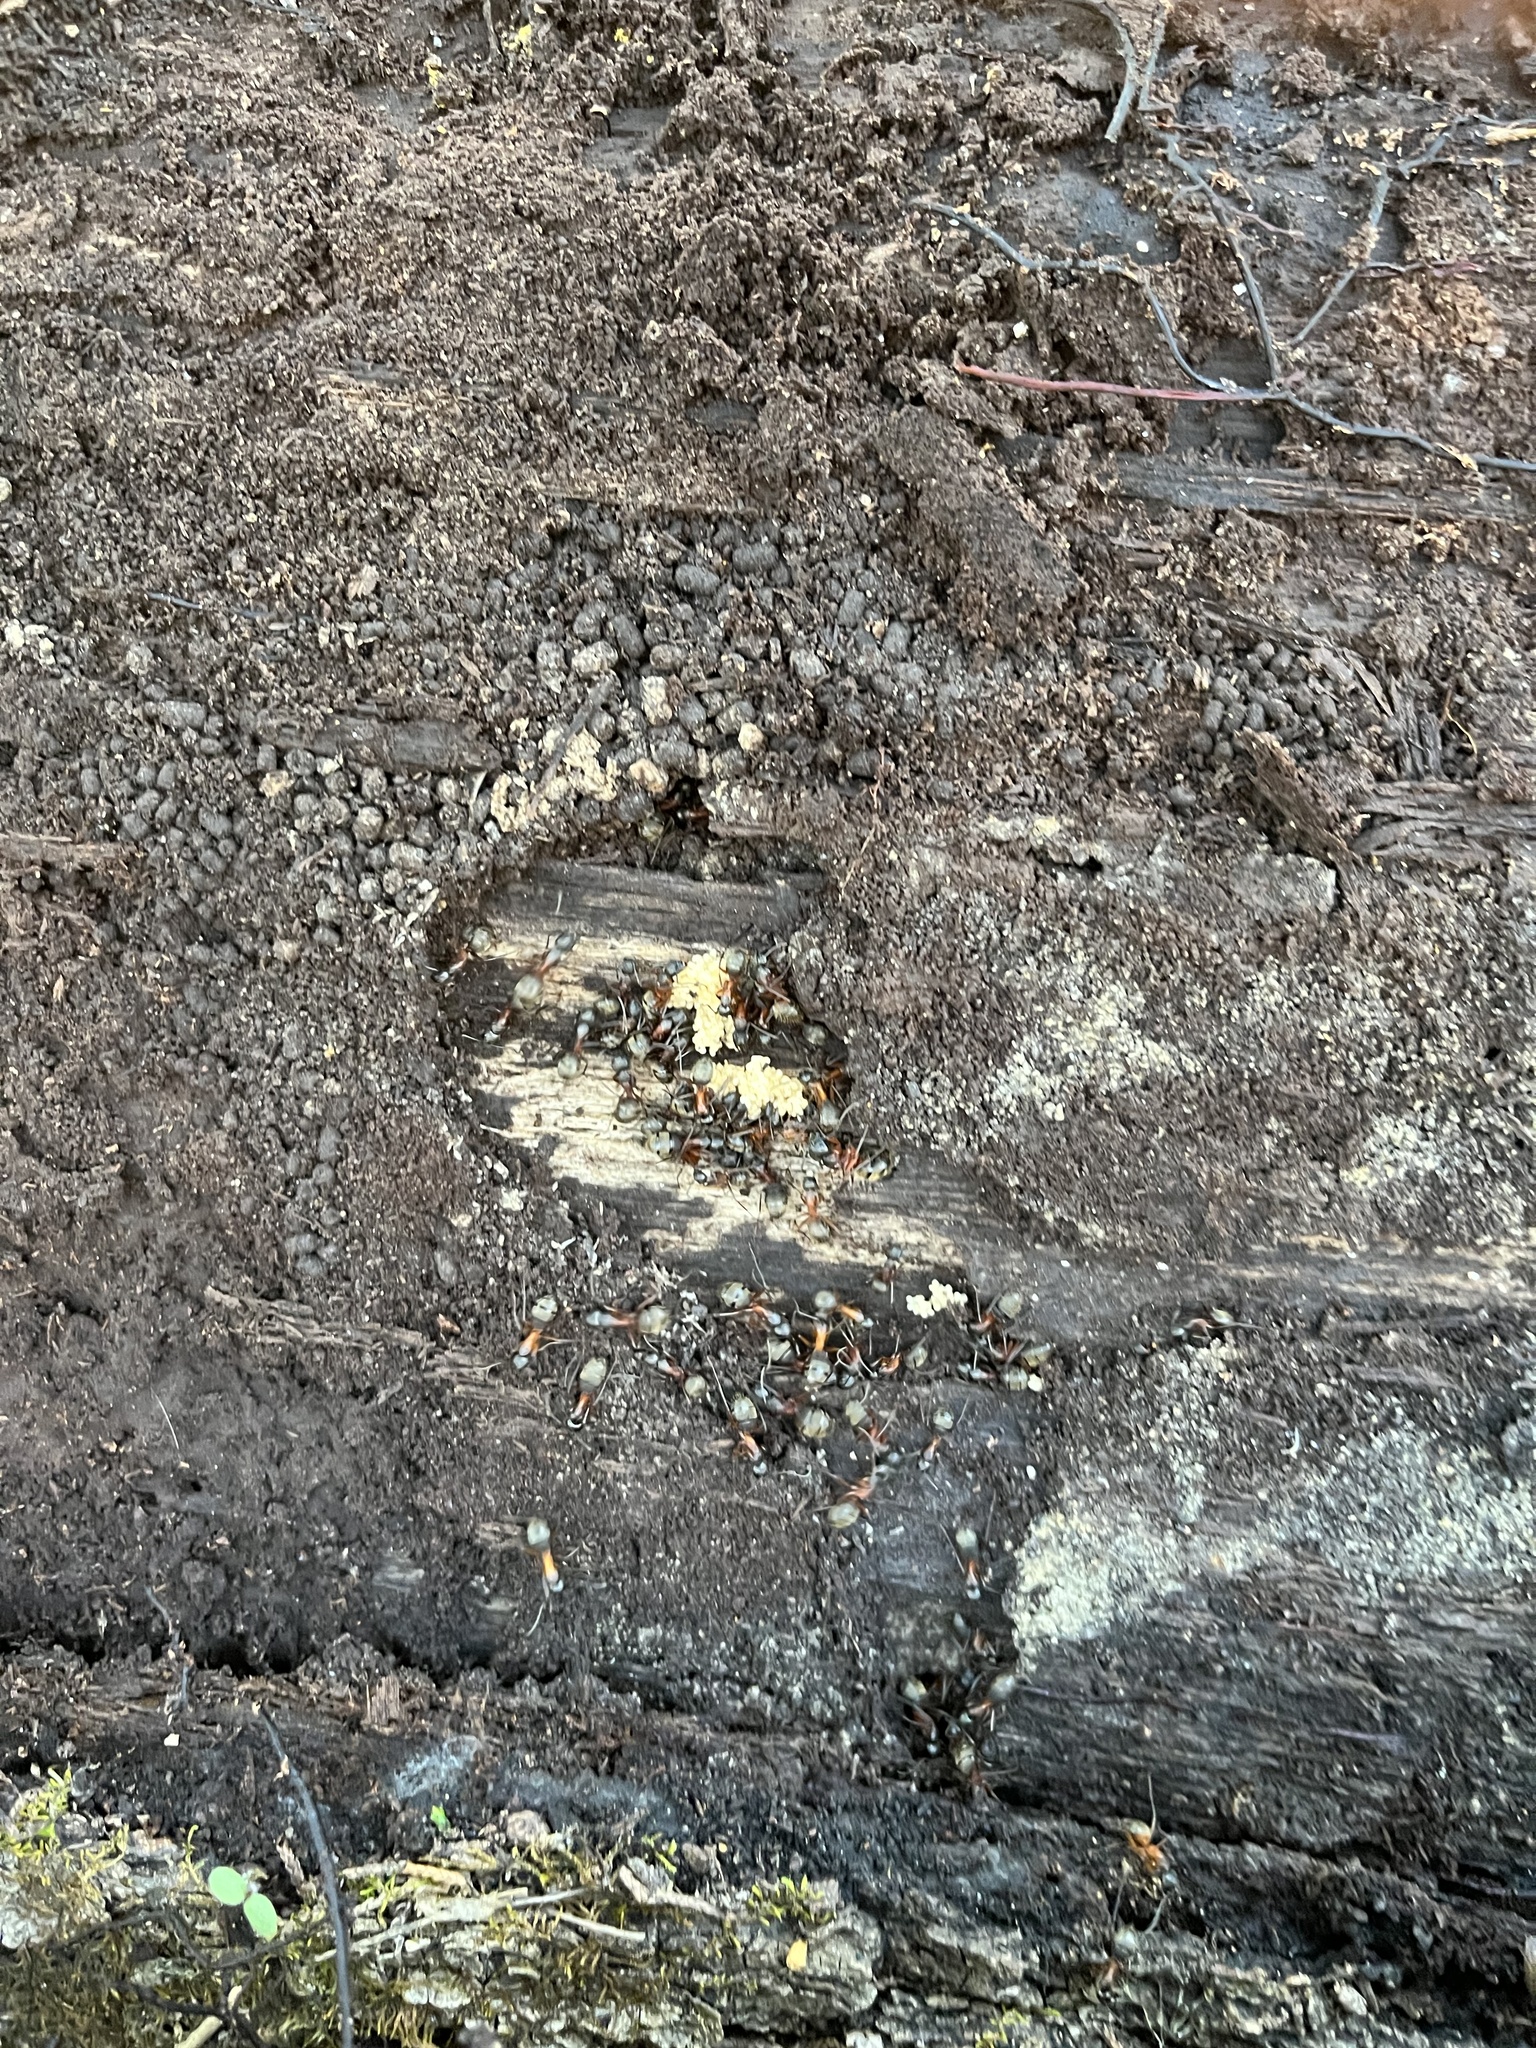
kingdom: Animalia
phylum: Arthropoda
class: Insecta
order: Hymenoptera
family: Formicidae
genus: Camponotus
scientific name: Camponotus chromaiodes
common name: Red carpenter ant
